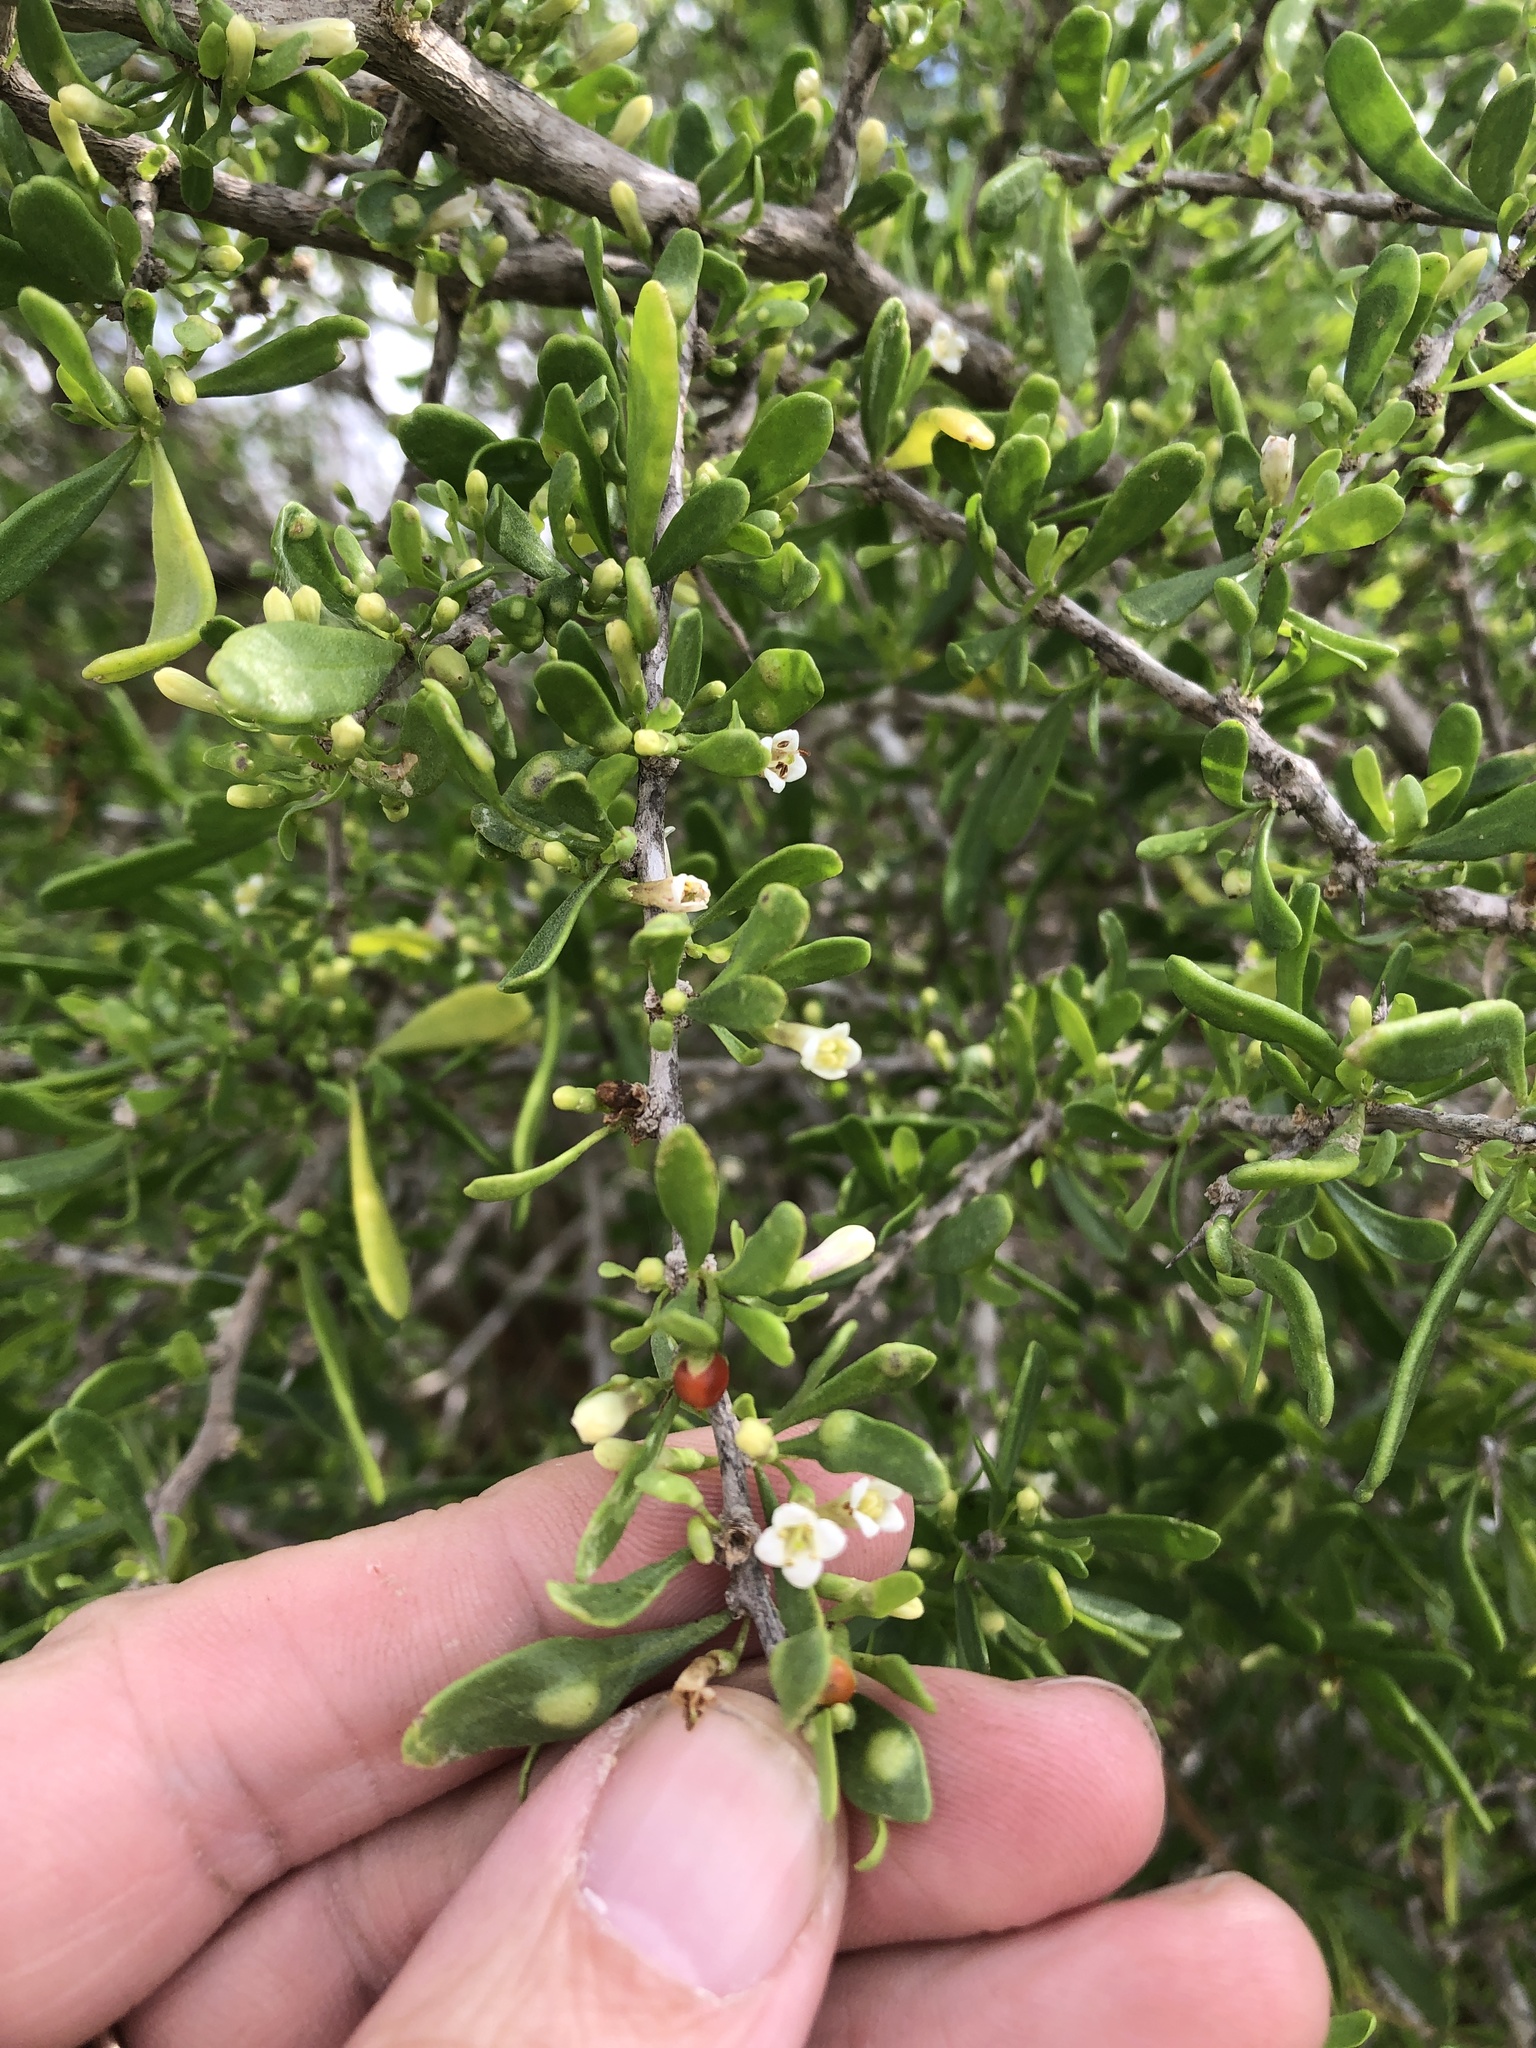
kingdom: Plantae
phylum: Tracheophyta
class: Magnoliopsida
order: Solanales
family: Solanaceae
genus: Lycium
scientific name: Lycium berlandieri
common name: Berlandier wolfberry
